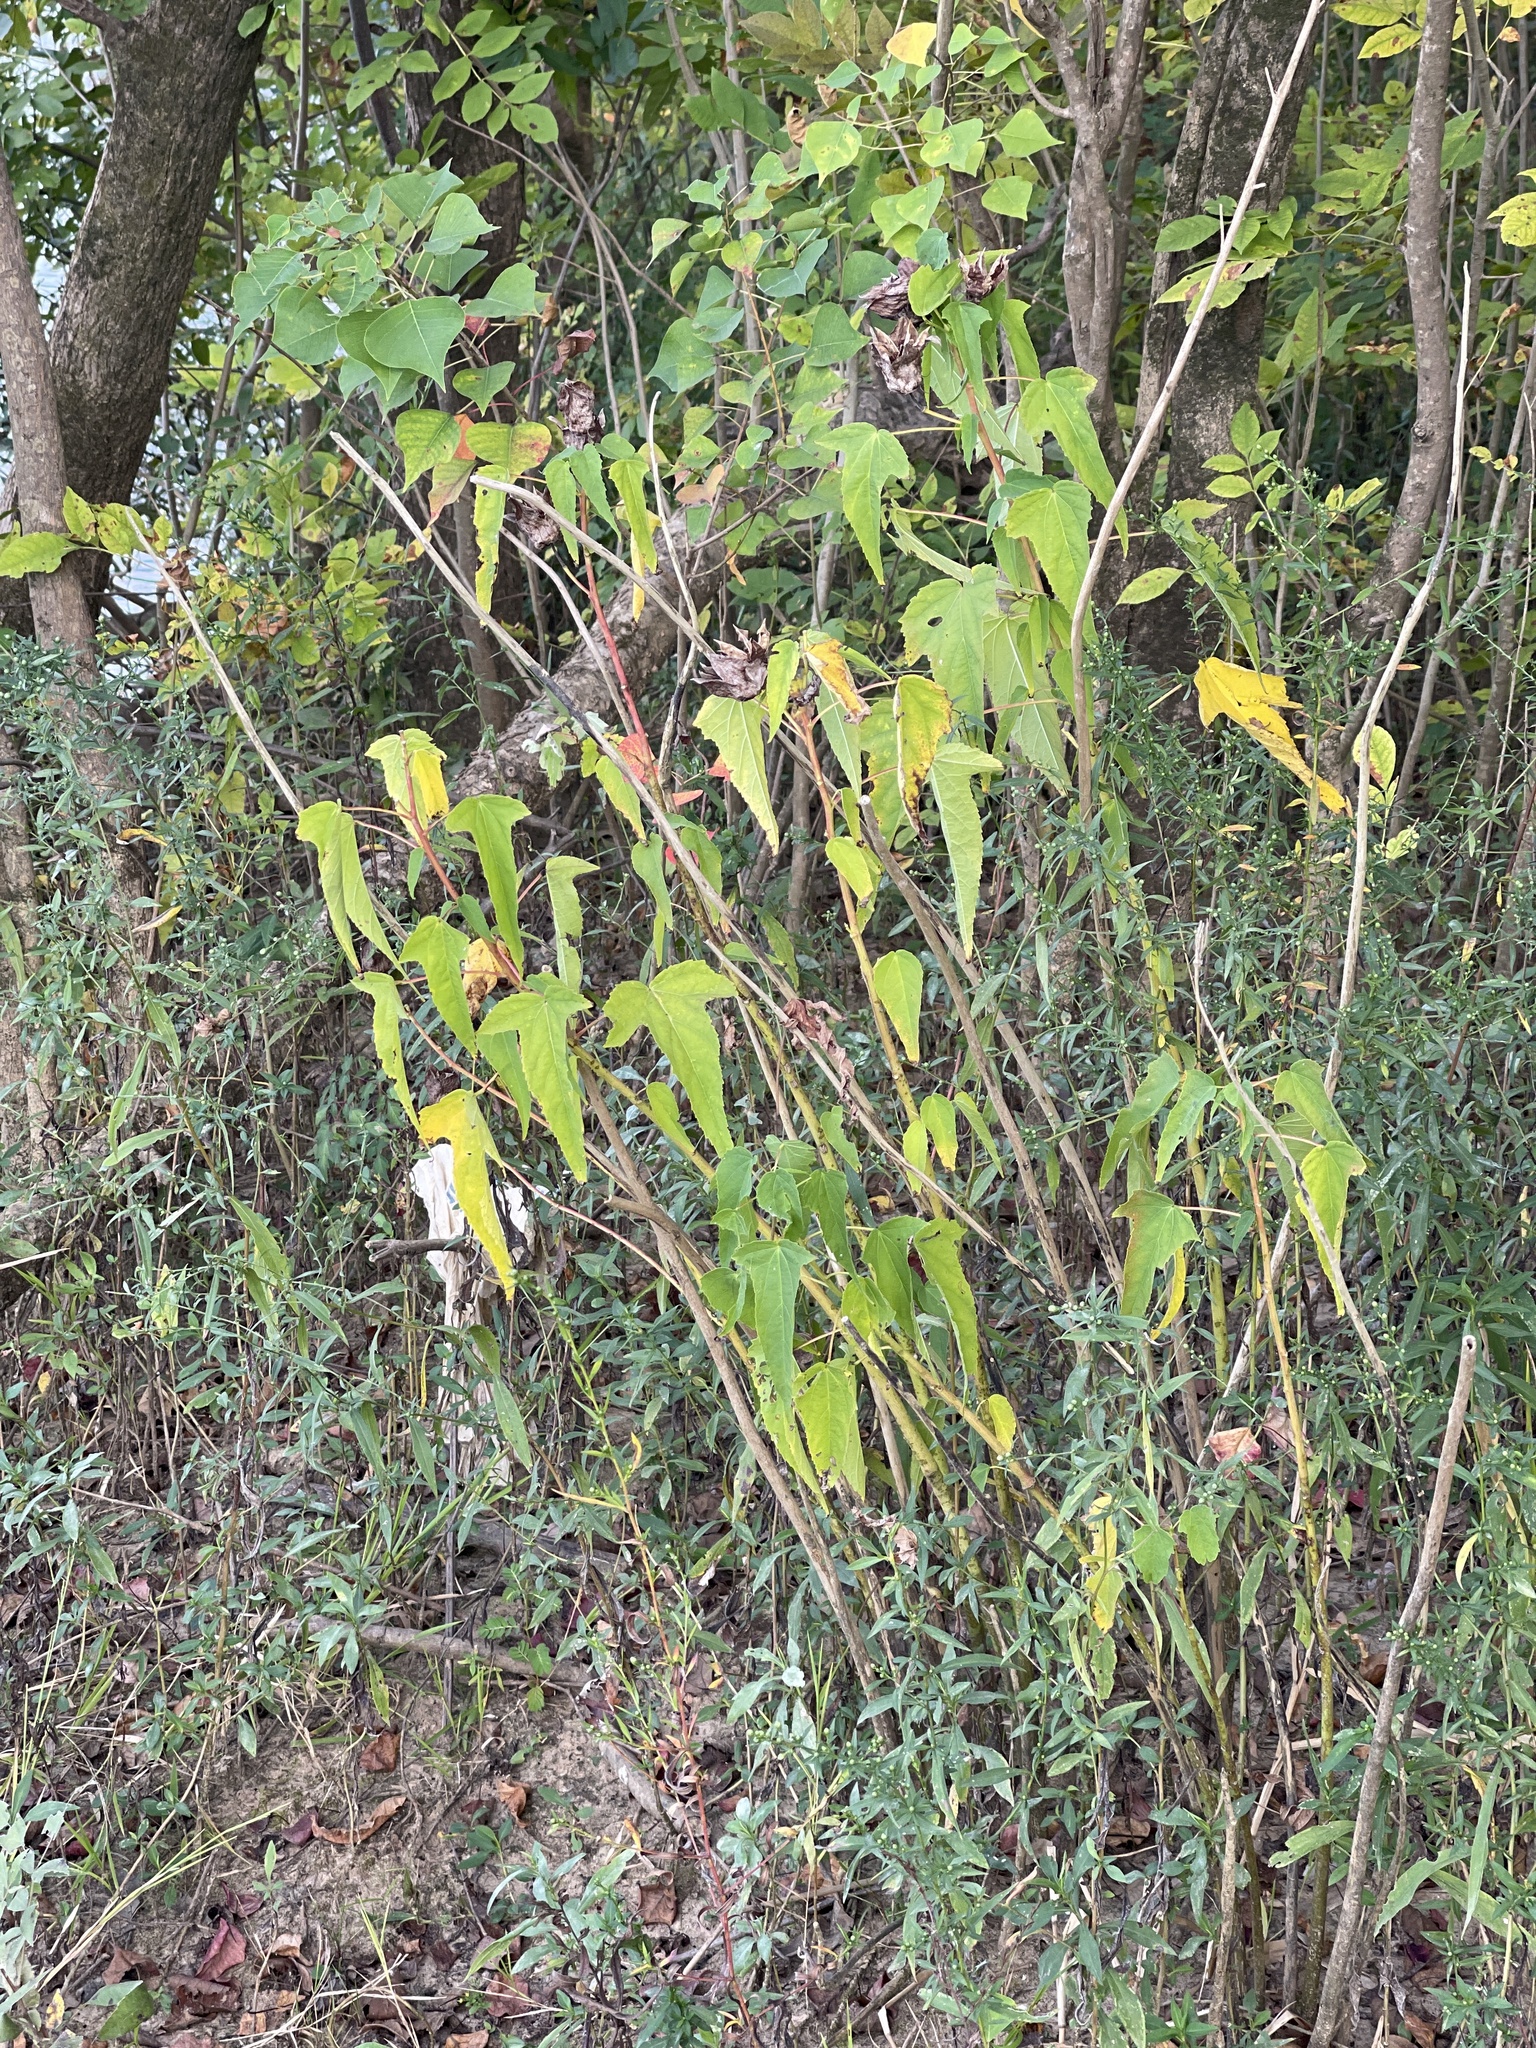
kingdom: Plantae
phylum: Tracheophyta
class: Magnoliopsida
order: Malvales
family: Malvaceae
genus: Hibiscus
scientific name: Hibiscus laevis
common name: Scarlet rose-mallow
